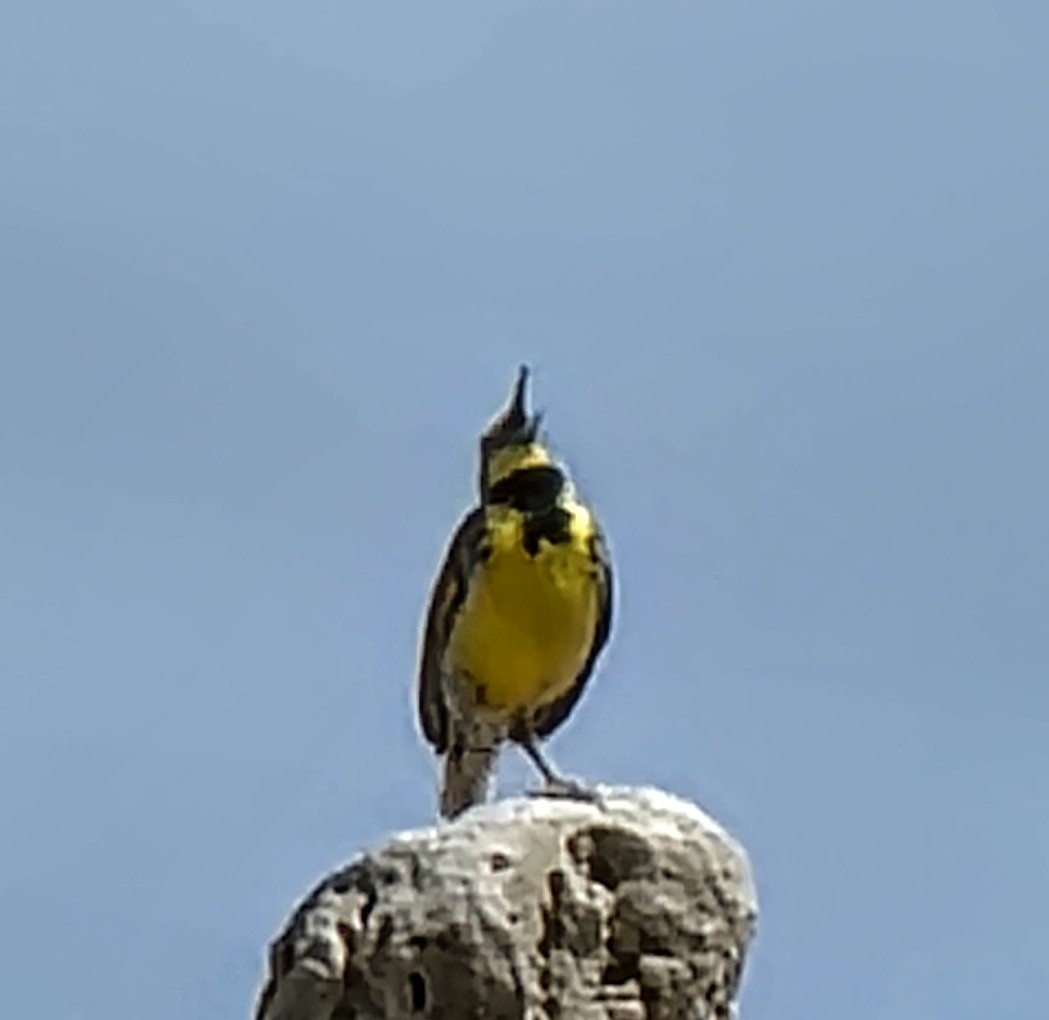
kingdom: Animalia
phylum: Chordata
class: Aves
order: Passeriformes
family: Icteridae
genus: Sturnella
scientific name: Sturnella neglecta
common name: Western meadowlark
